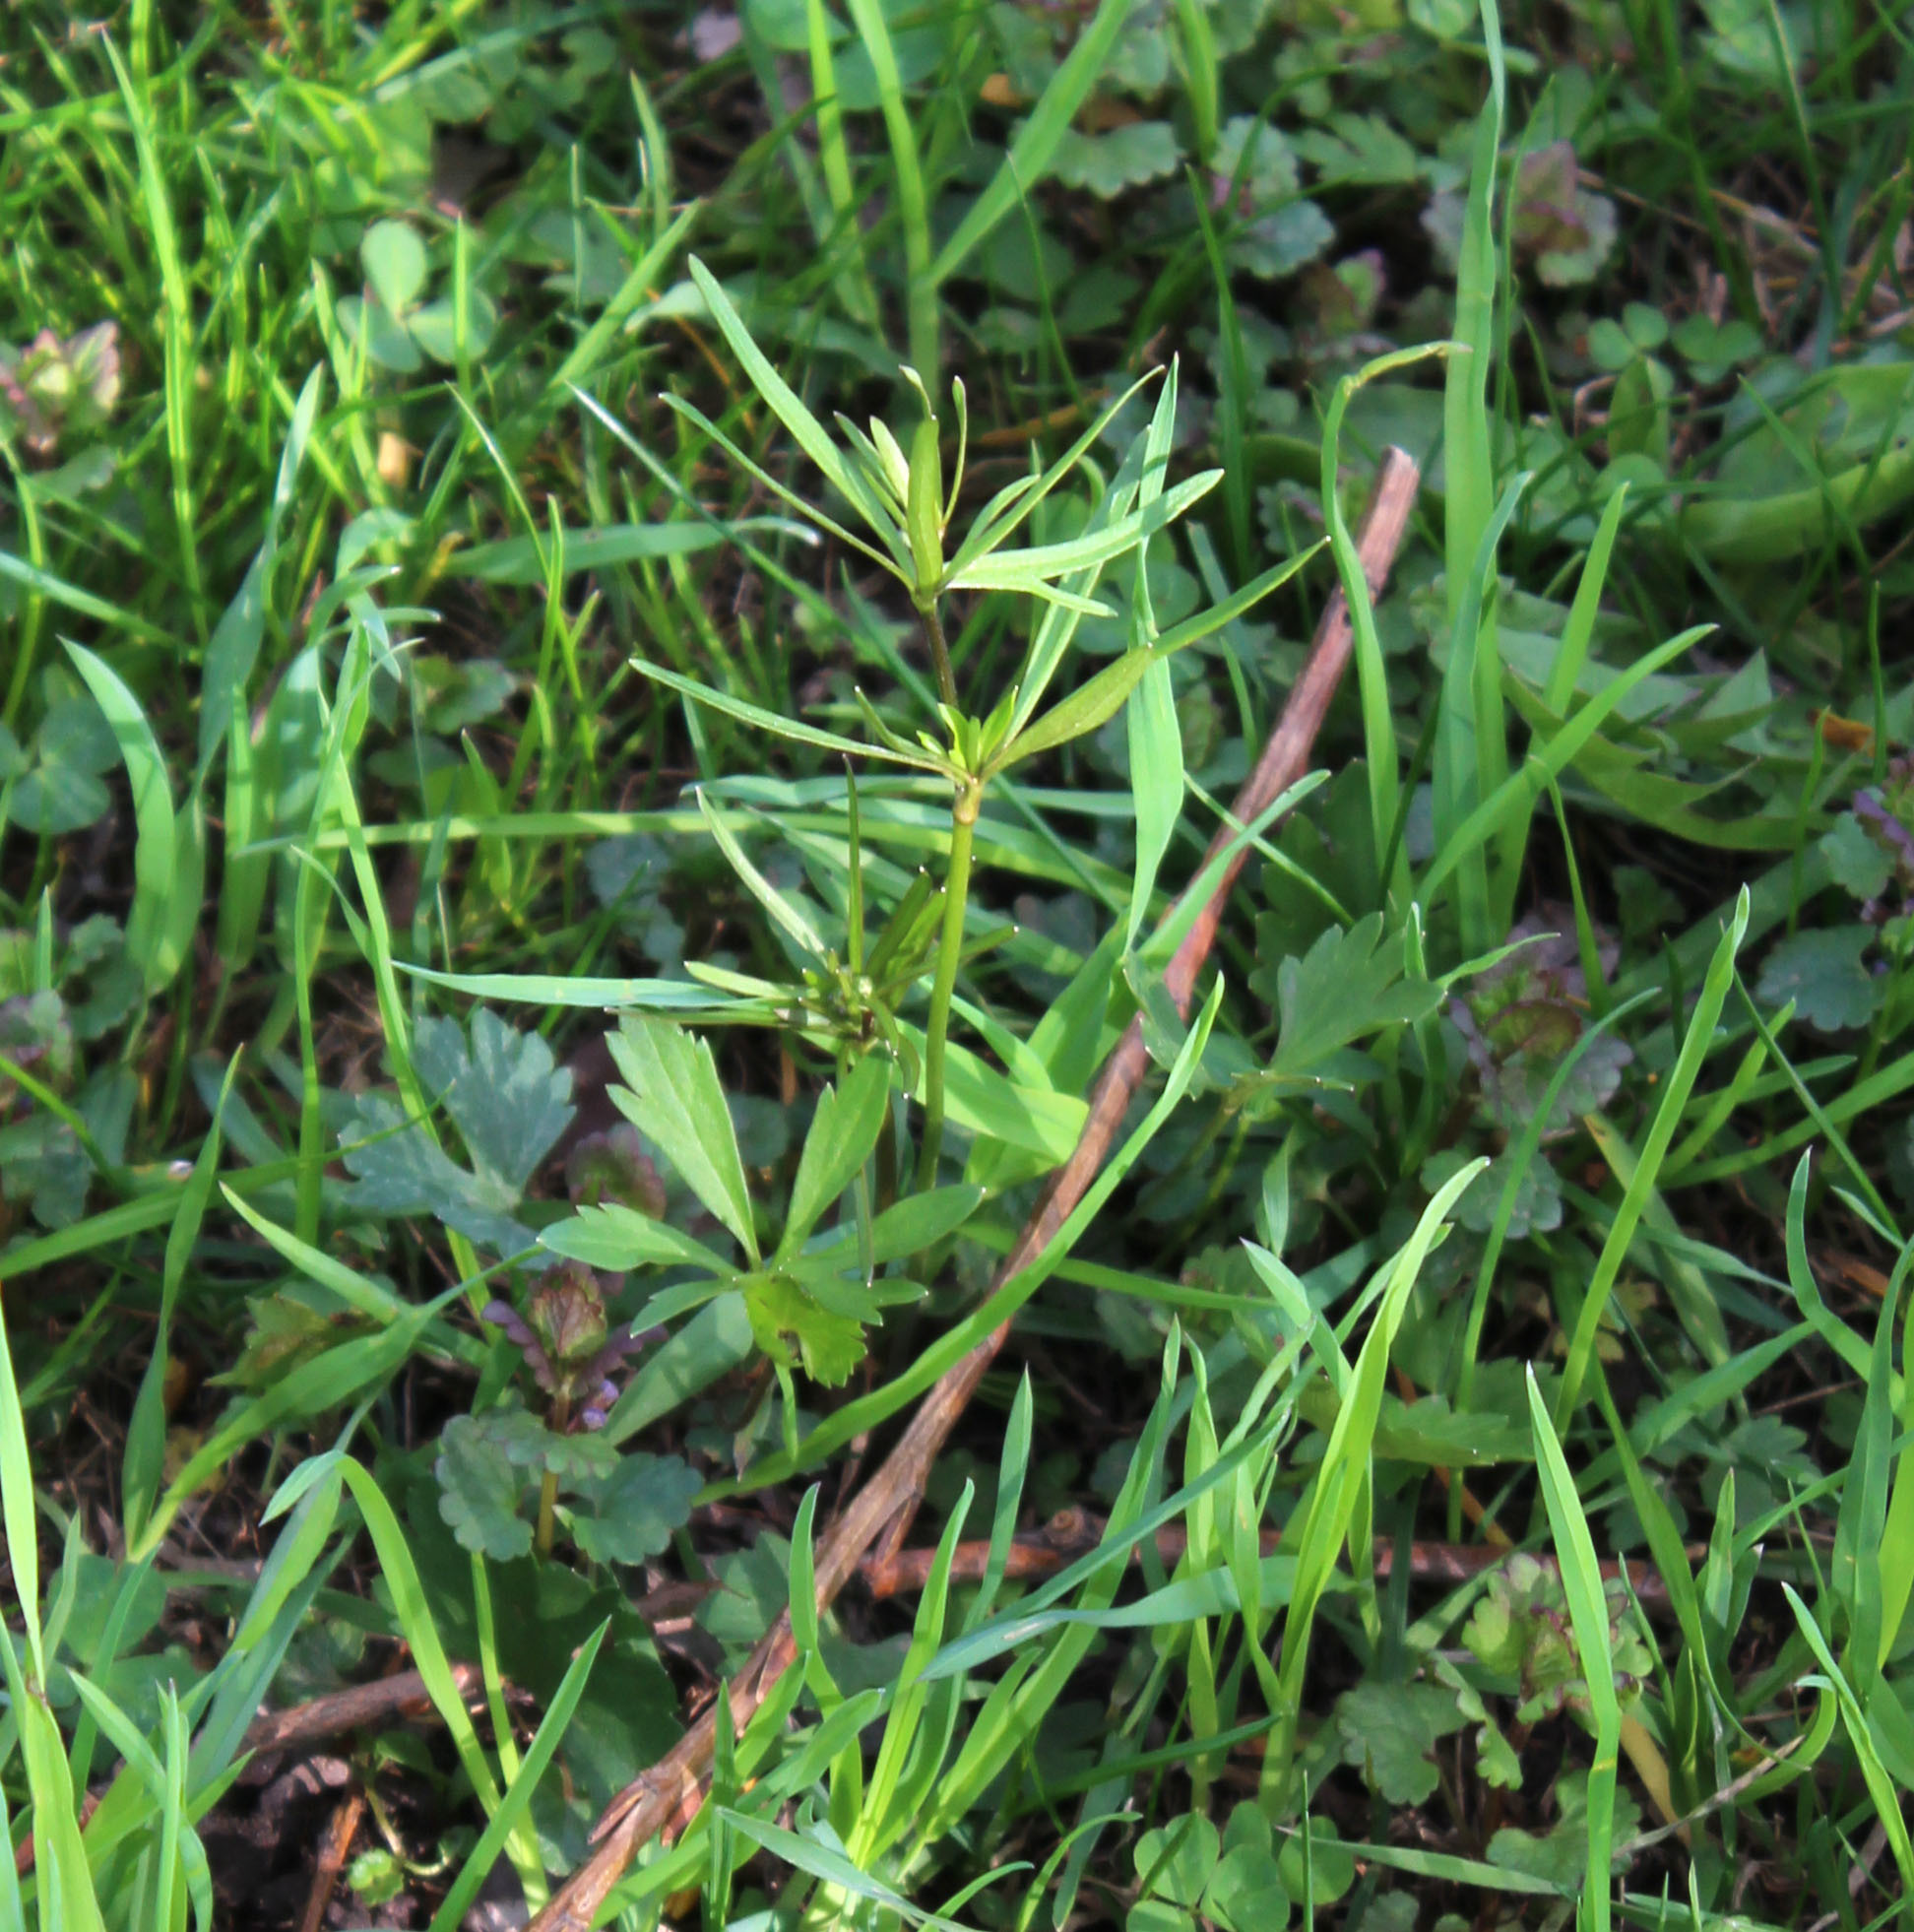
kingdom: Plantae
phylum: Tracheophyta
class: Magnoliopsida
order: Ranunculales
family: Ranunculaceae
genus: Ranunculus
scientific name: Ranunculus auricomus
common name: Goldilocks buttercup
